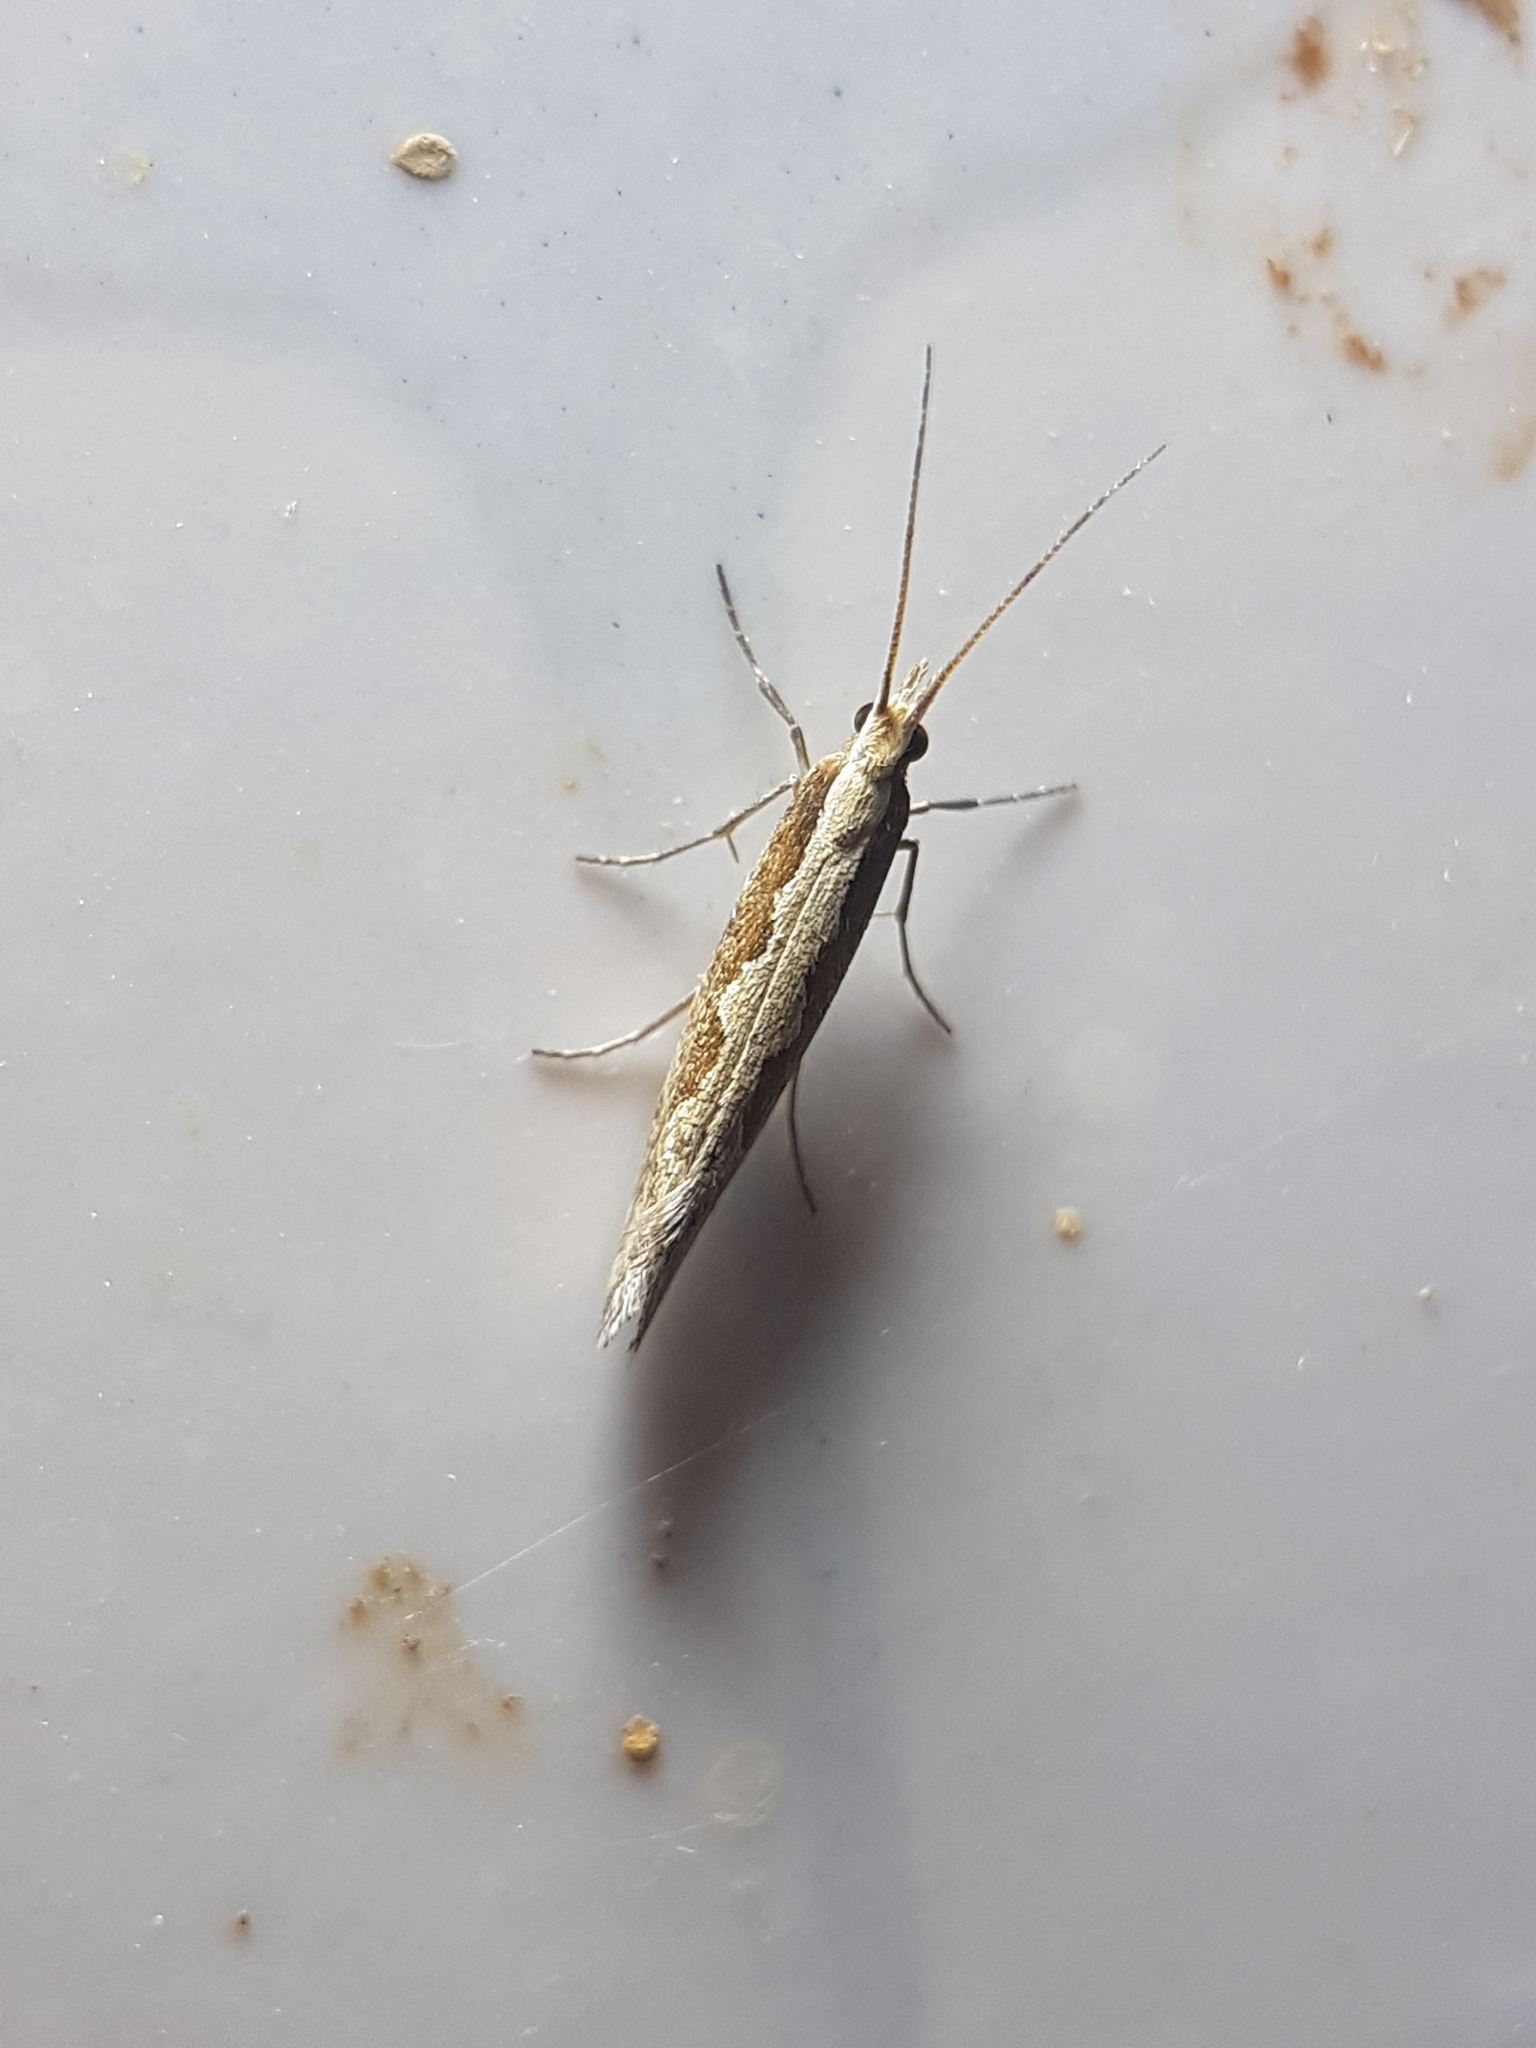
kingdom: Animalia
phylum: Arthropoda
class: Insecta
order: Lepidoptera
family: Plutellidae
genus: Plutella
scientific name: Plutella xylostella
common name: Diamond-back moth
